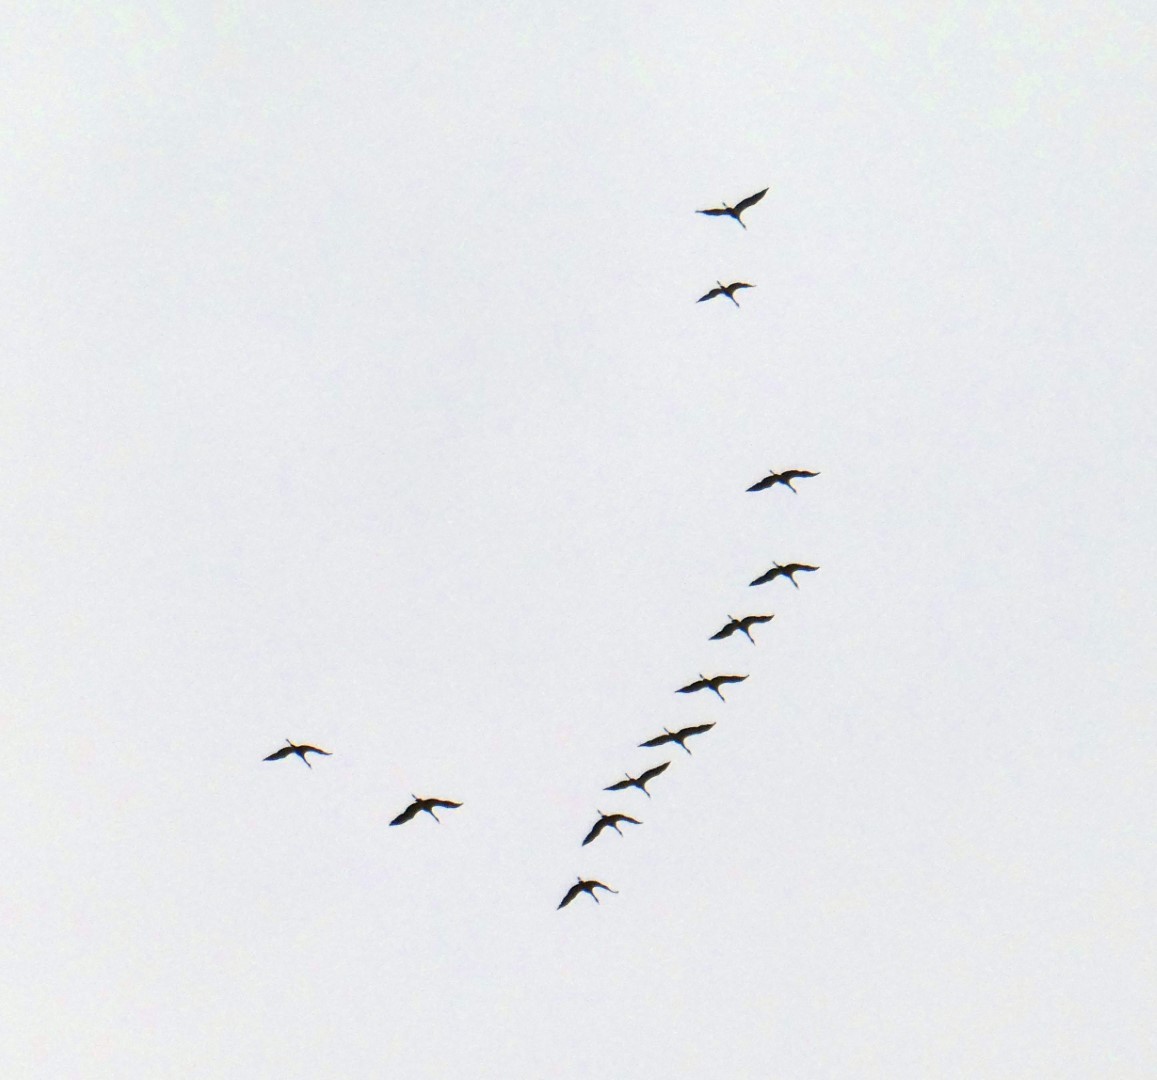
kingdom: Animalia
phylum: Chordata
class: Aves
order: Gruiformes
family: Gruidae
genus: Grus
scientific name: Grus grus
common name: Common crane
